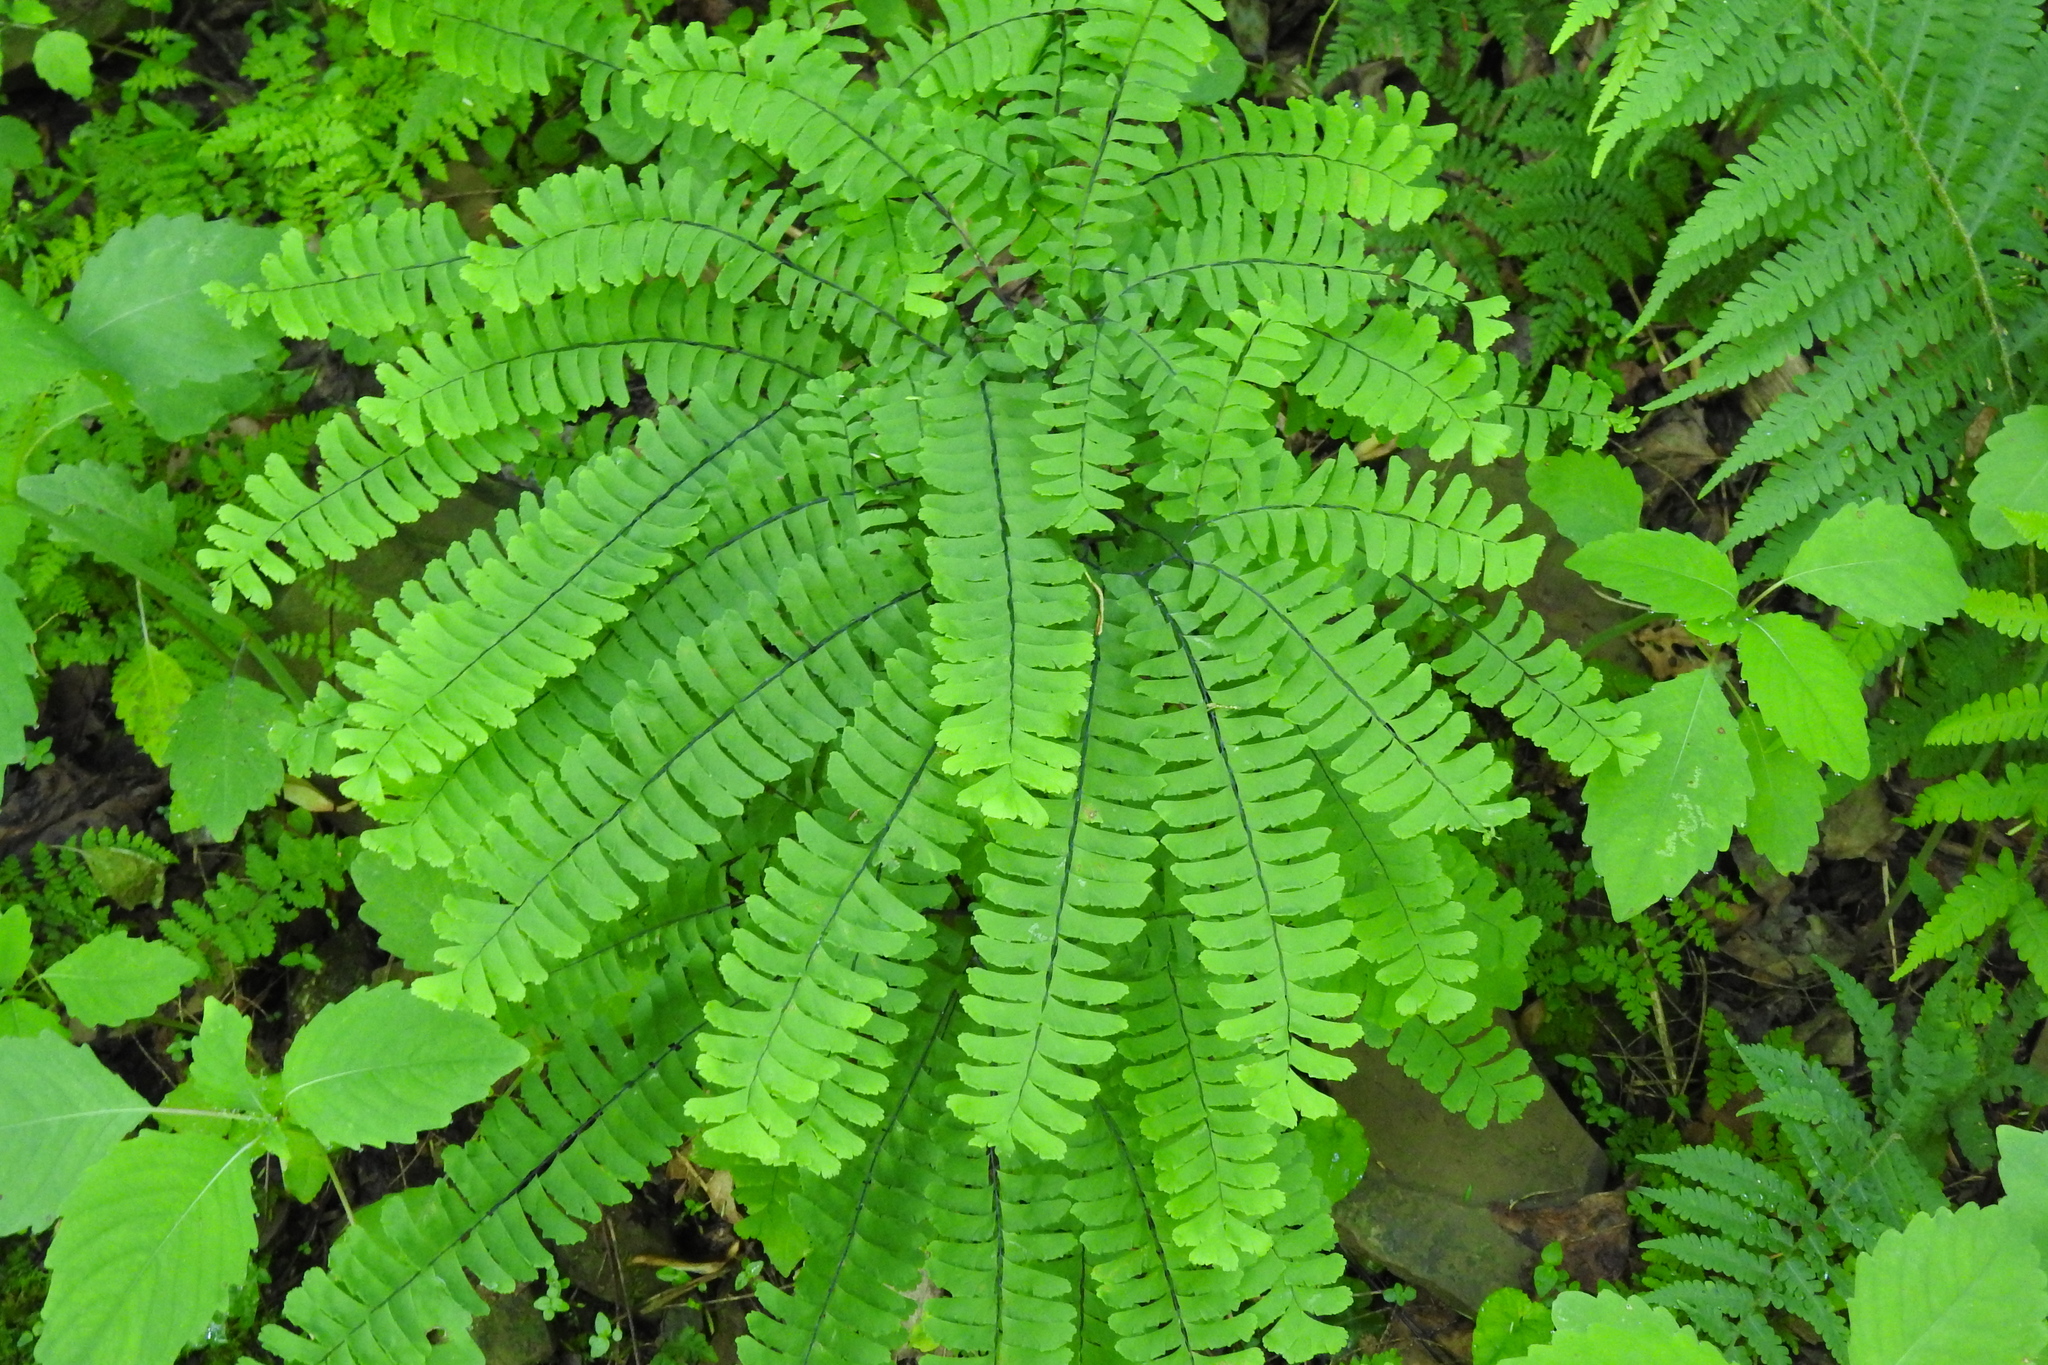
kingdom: Plantae
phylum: Tracheophyta
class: Polypodiopsida
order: Polypodiales
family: Pteridaceae
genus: Adiantum
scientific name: Adiantum pedatum
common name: Five-finger fern
